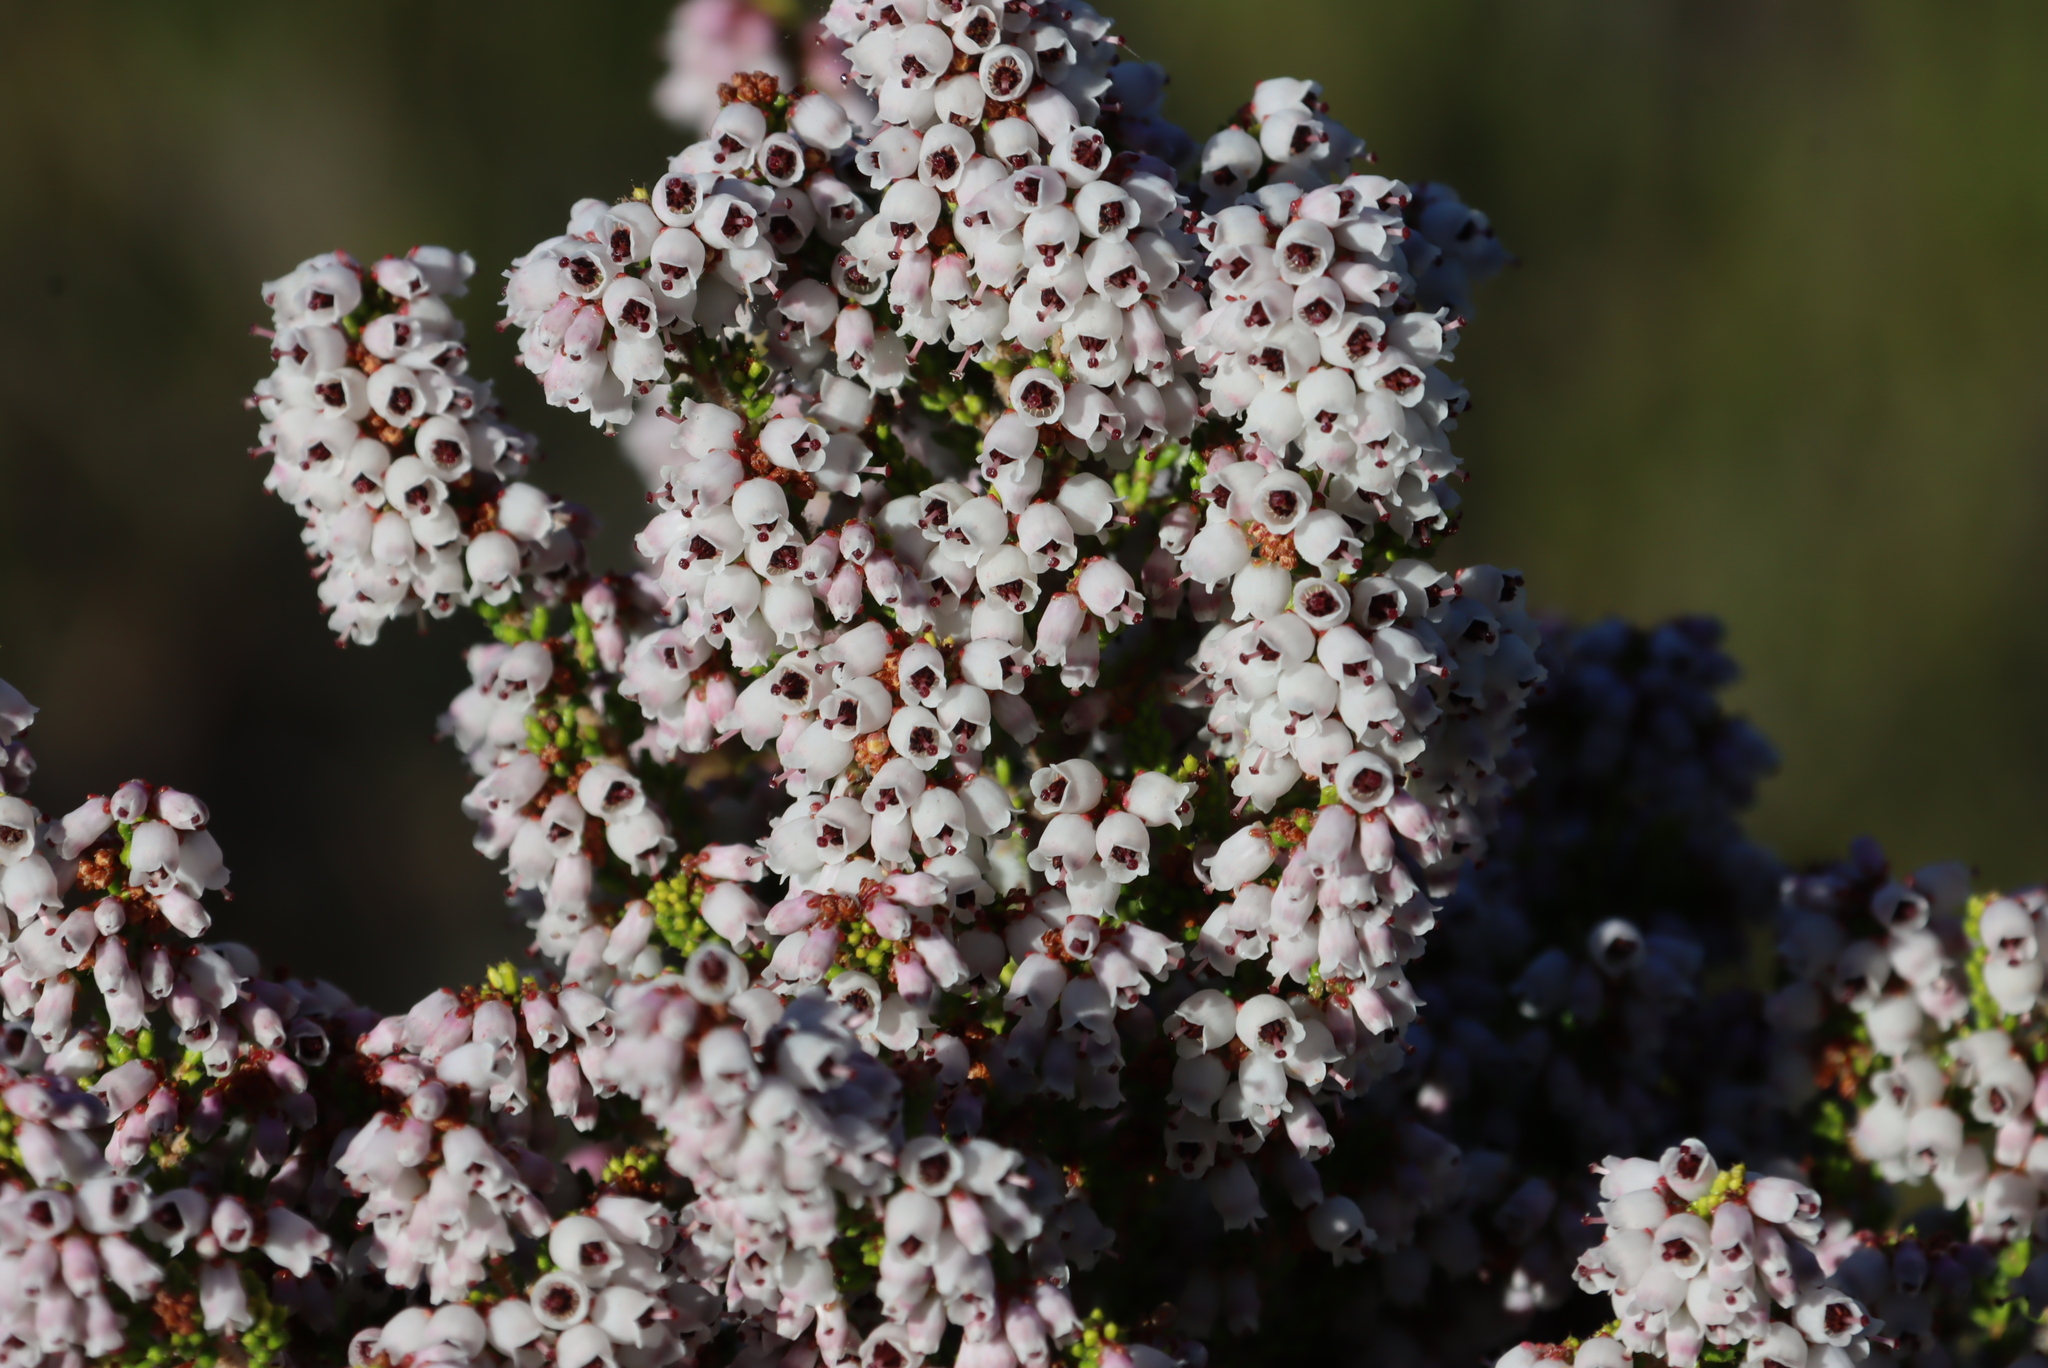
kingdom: Plantae
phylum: Tracheophyta
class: Magnoliopsida
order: Ericales
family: Ericaceae
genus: Erica
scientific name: Erica scabriuscula
